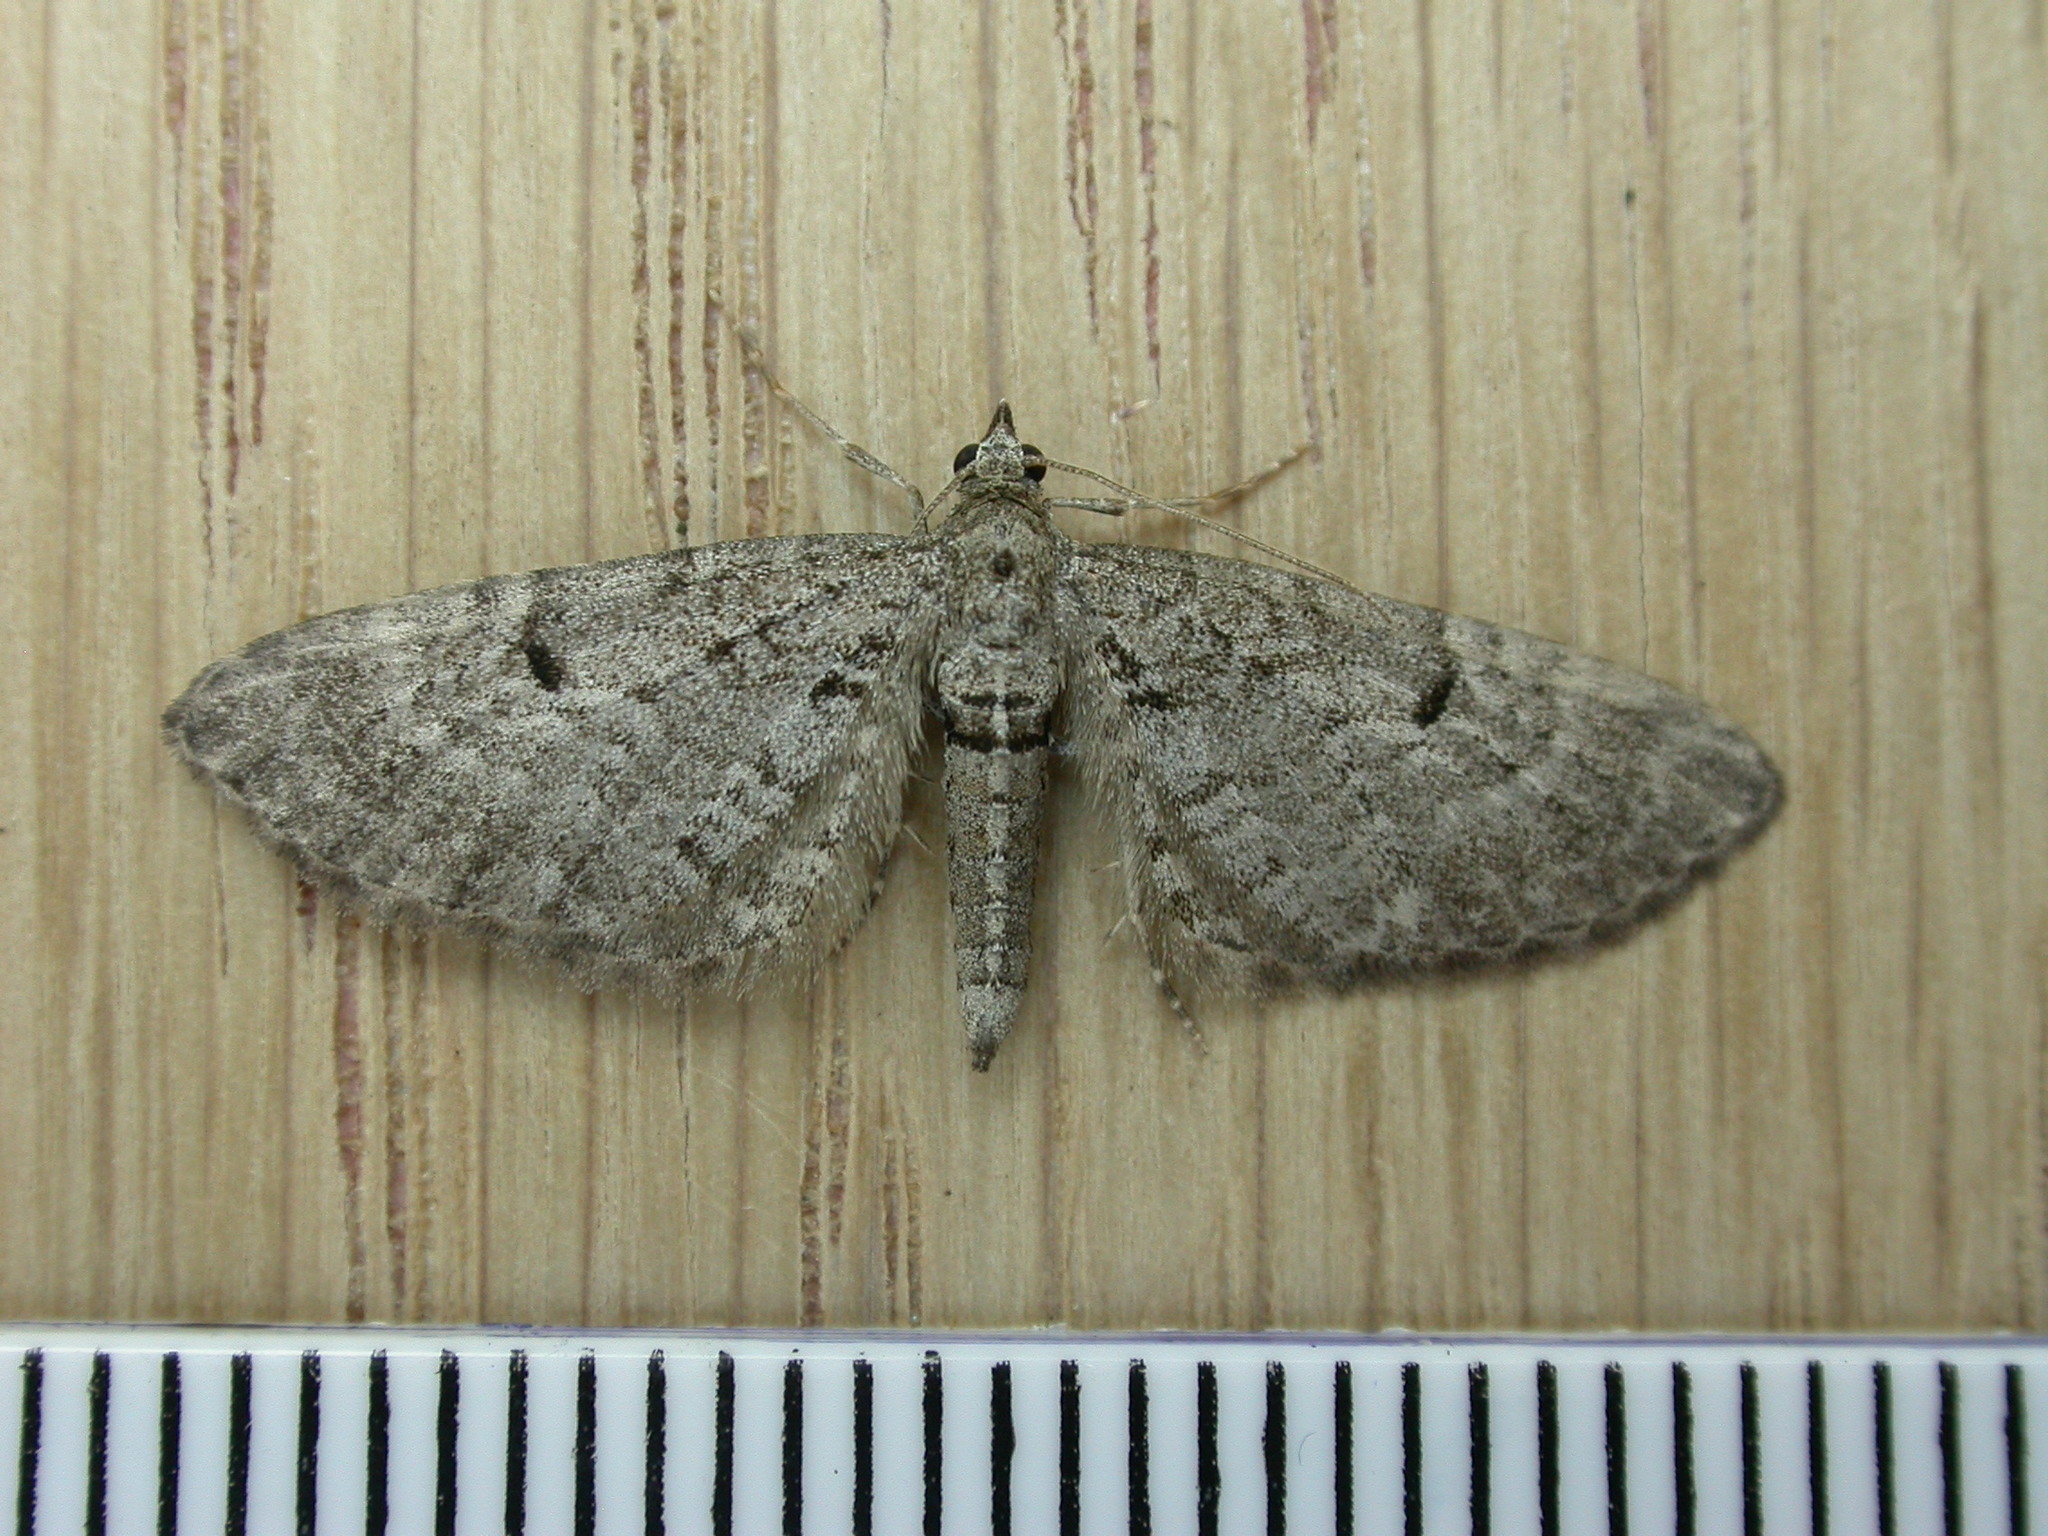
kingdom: Animalia
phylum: Arthropoda
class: Insecta
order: Lepidoptera
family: Geometridae
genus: Eupithecia
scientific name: Eupithecia intricata
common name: Freyers pug
